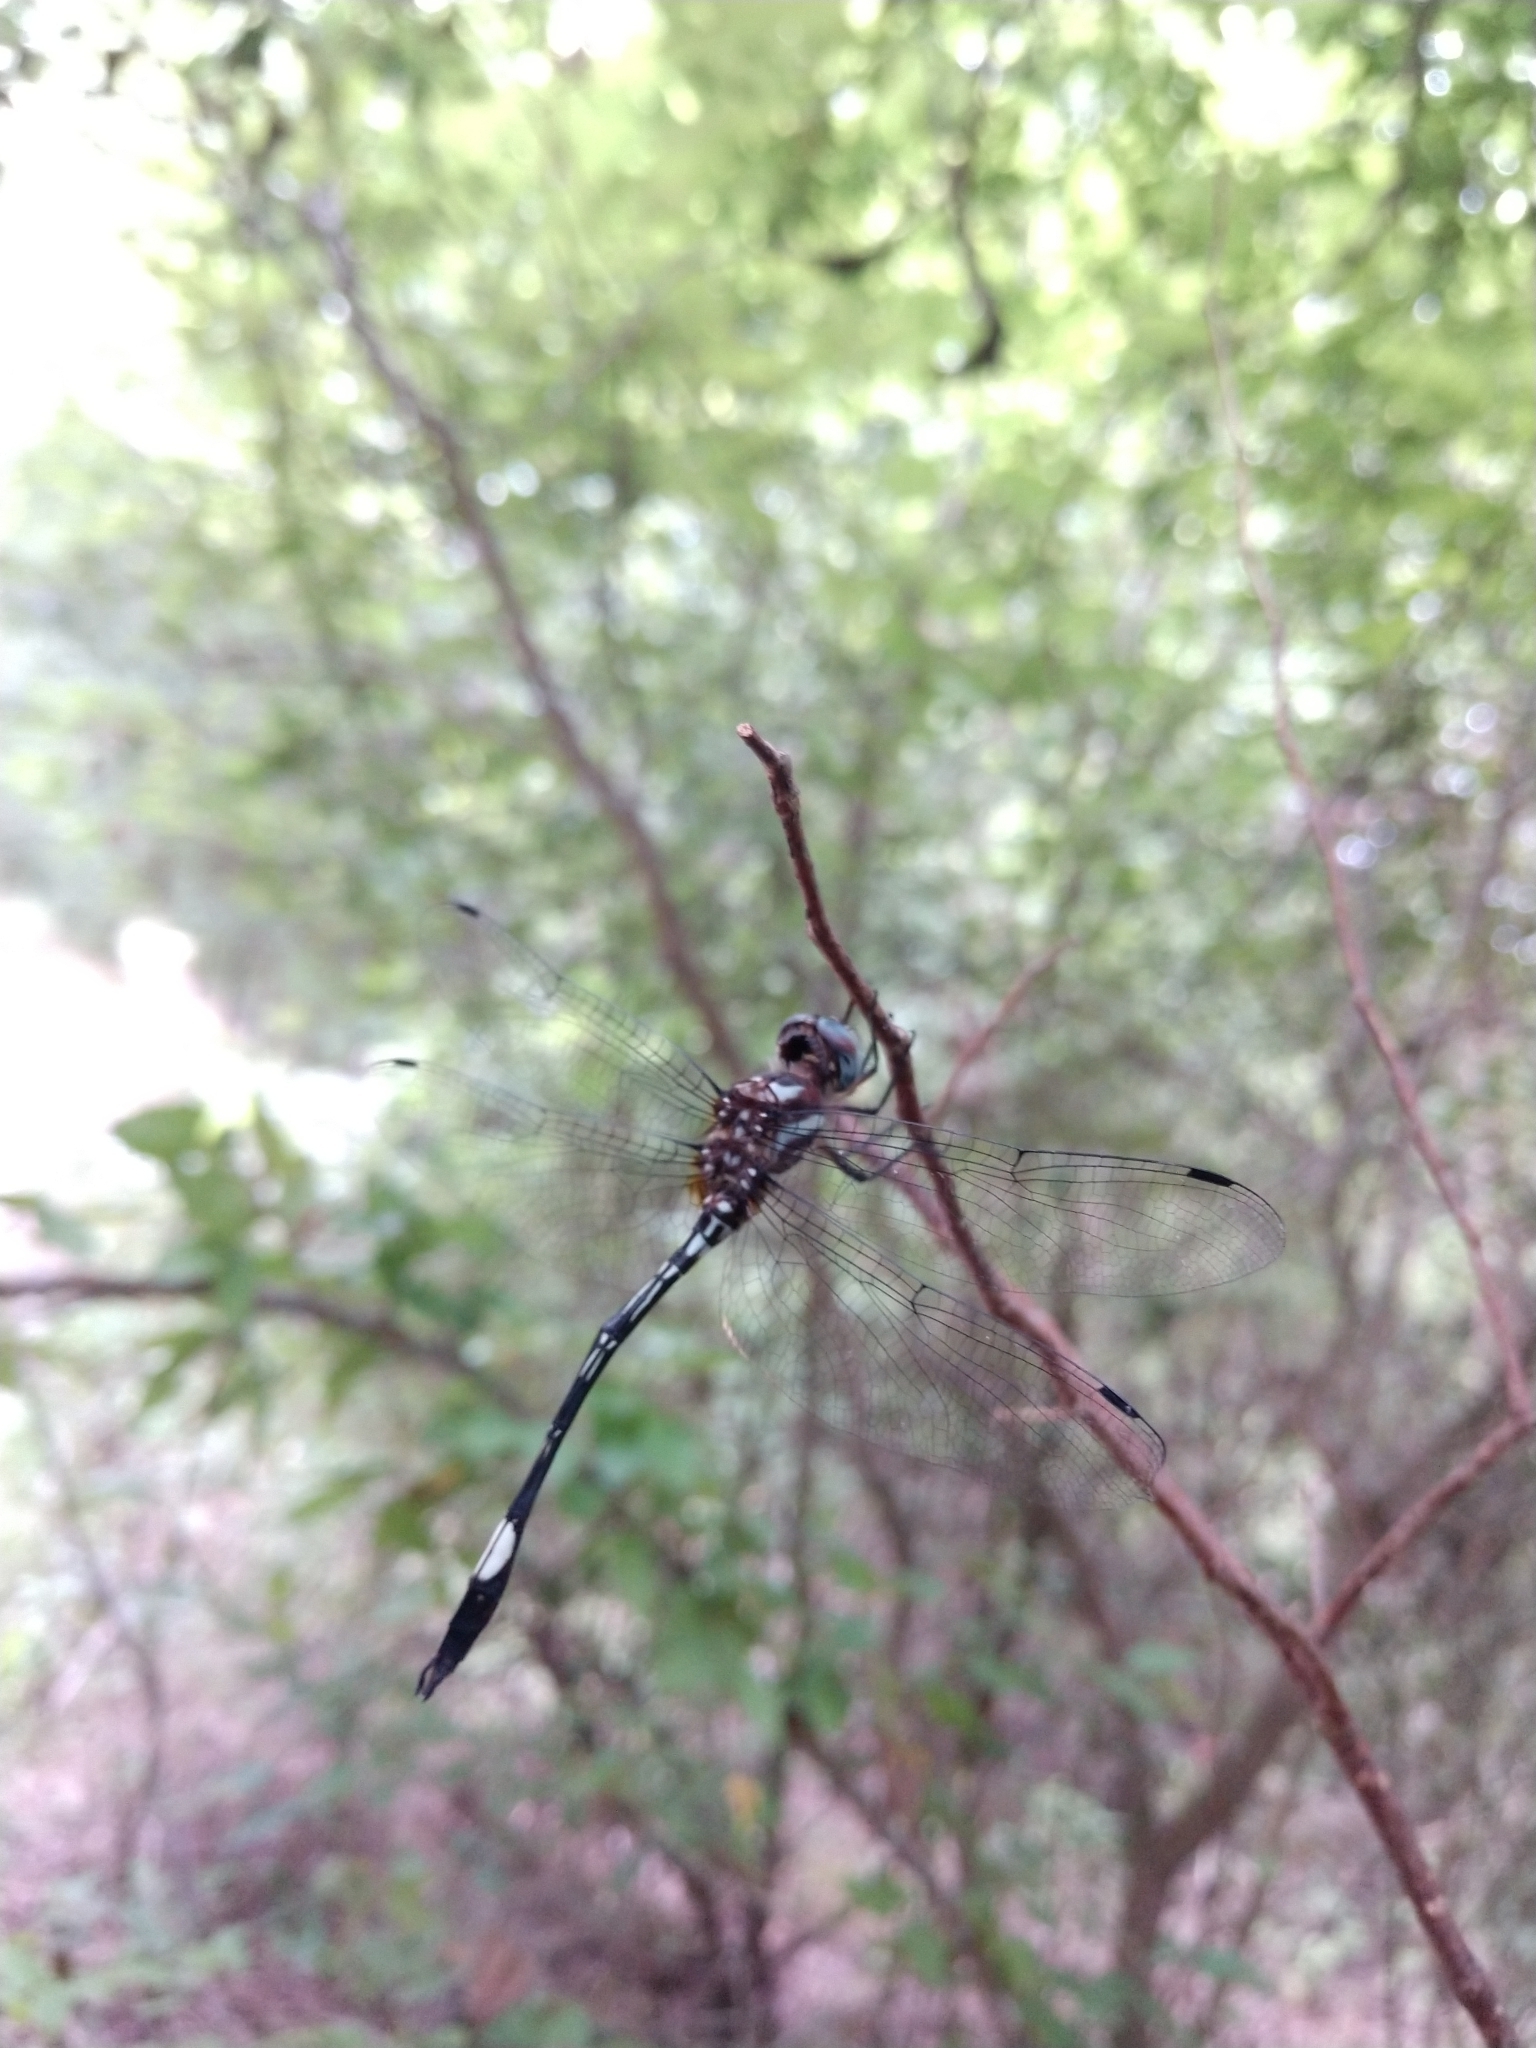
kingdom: Animalia
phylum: Arthropoda
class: Insecta
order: Odonata
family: Libellulidae
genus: Brechmorhoga
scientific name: Brechmorhoga mendax
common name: Pale-faced clubskimmer
